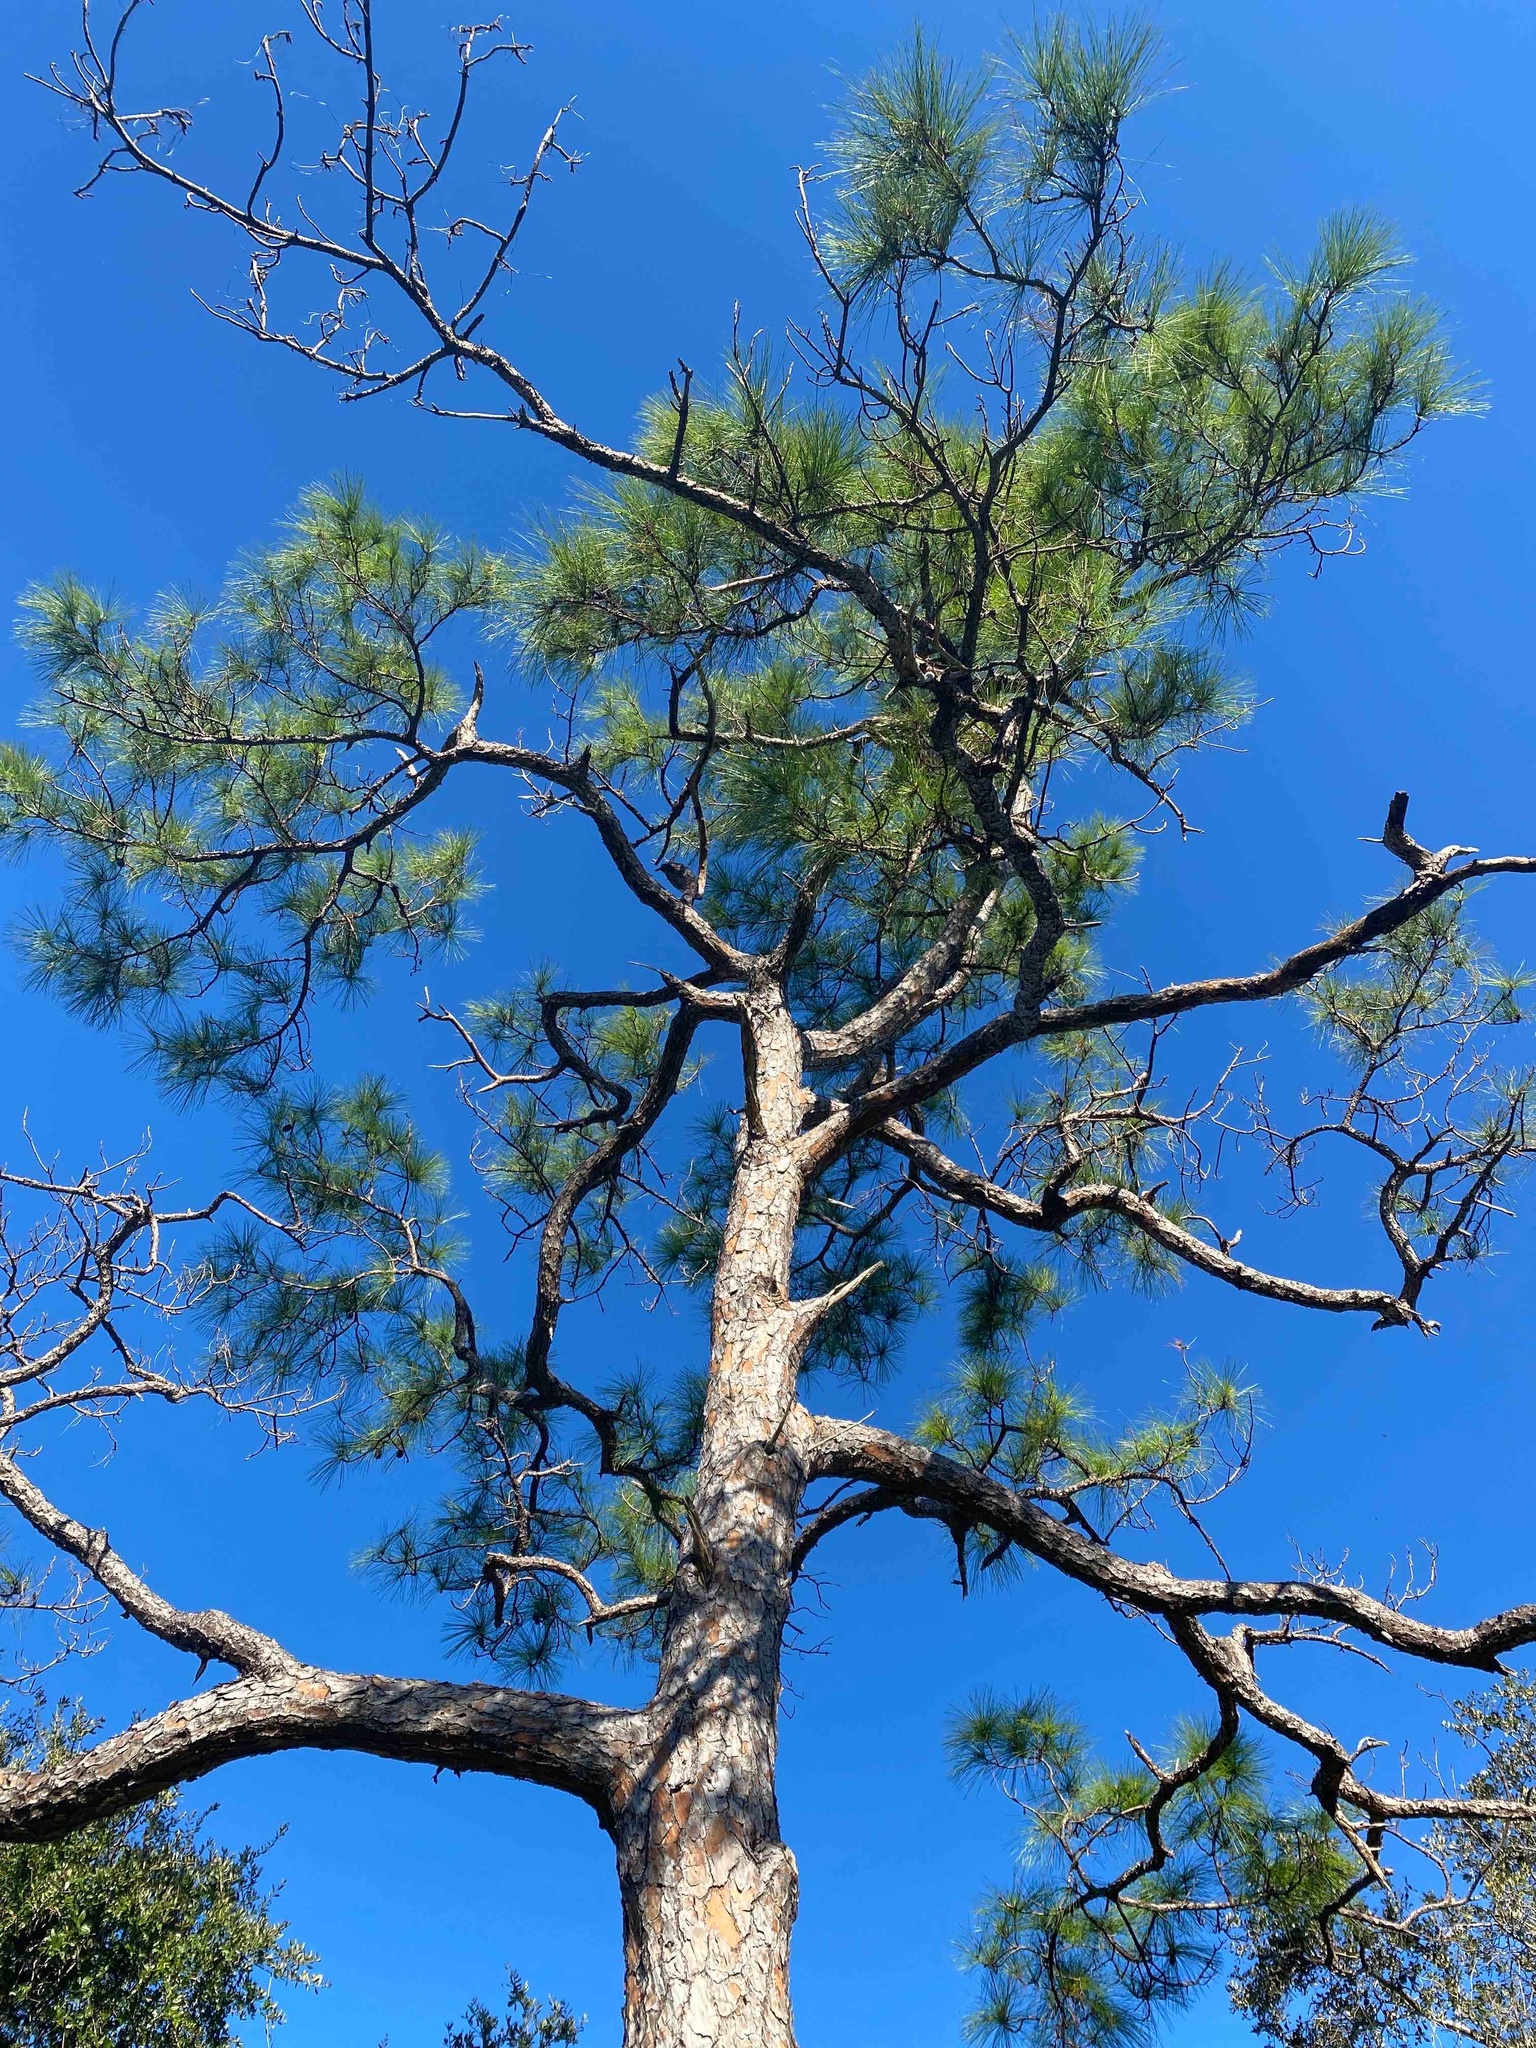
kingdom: Plantae
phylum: Tracheophyta
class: Pinopsida
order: Pinales
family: Pinaceae
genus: Pinus
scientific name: Pinus elliottii
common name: Slash pine
